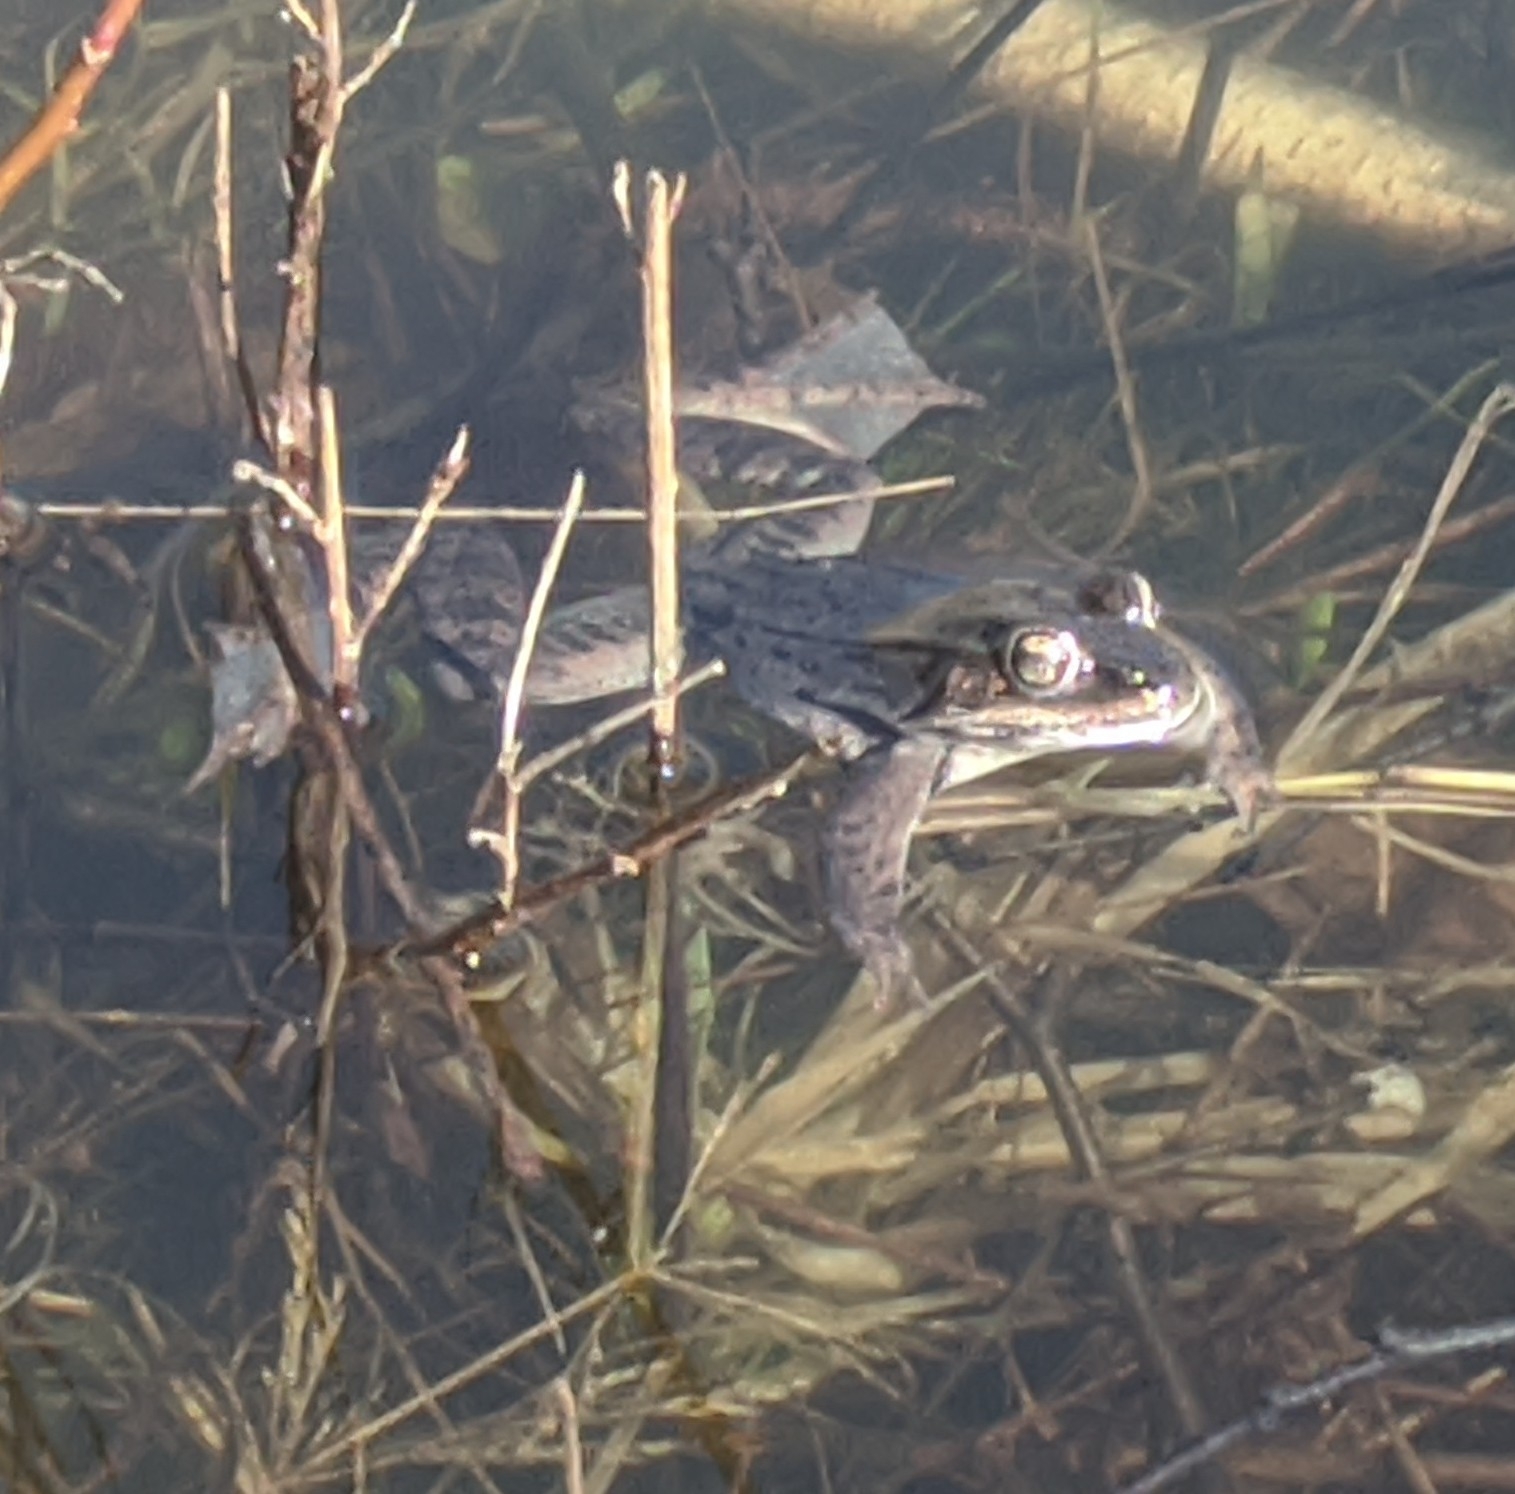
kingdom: Animalia
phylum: Chordata
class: Amphibia
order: Anura
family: Ranidae
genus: Lithobates
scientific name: Lithobates sylvaticus
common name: Wood frog
